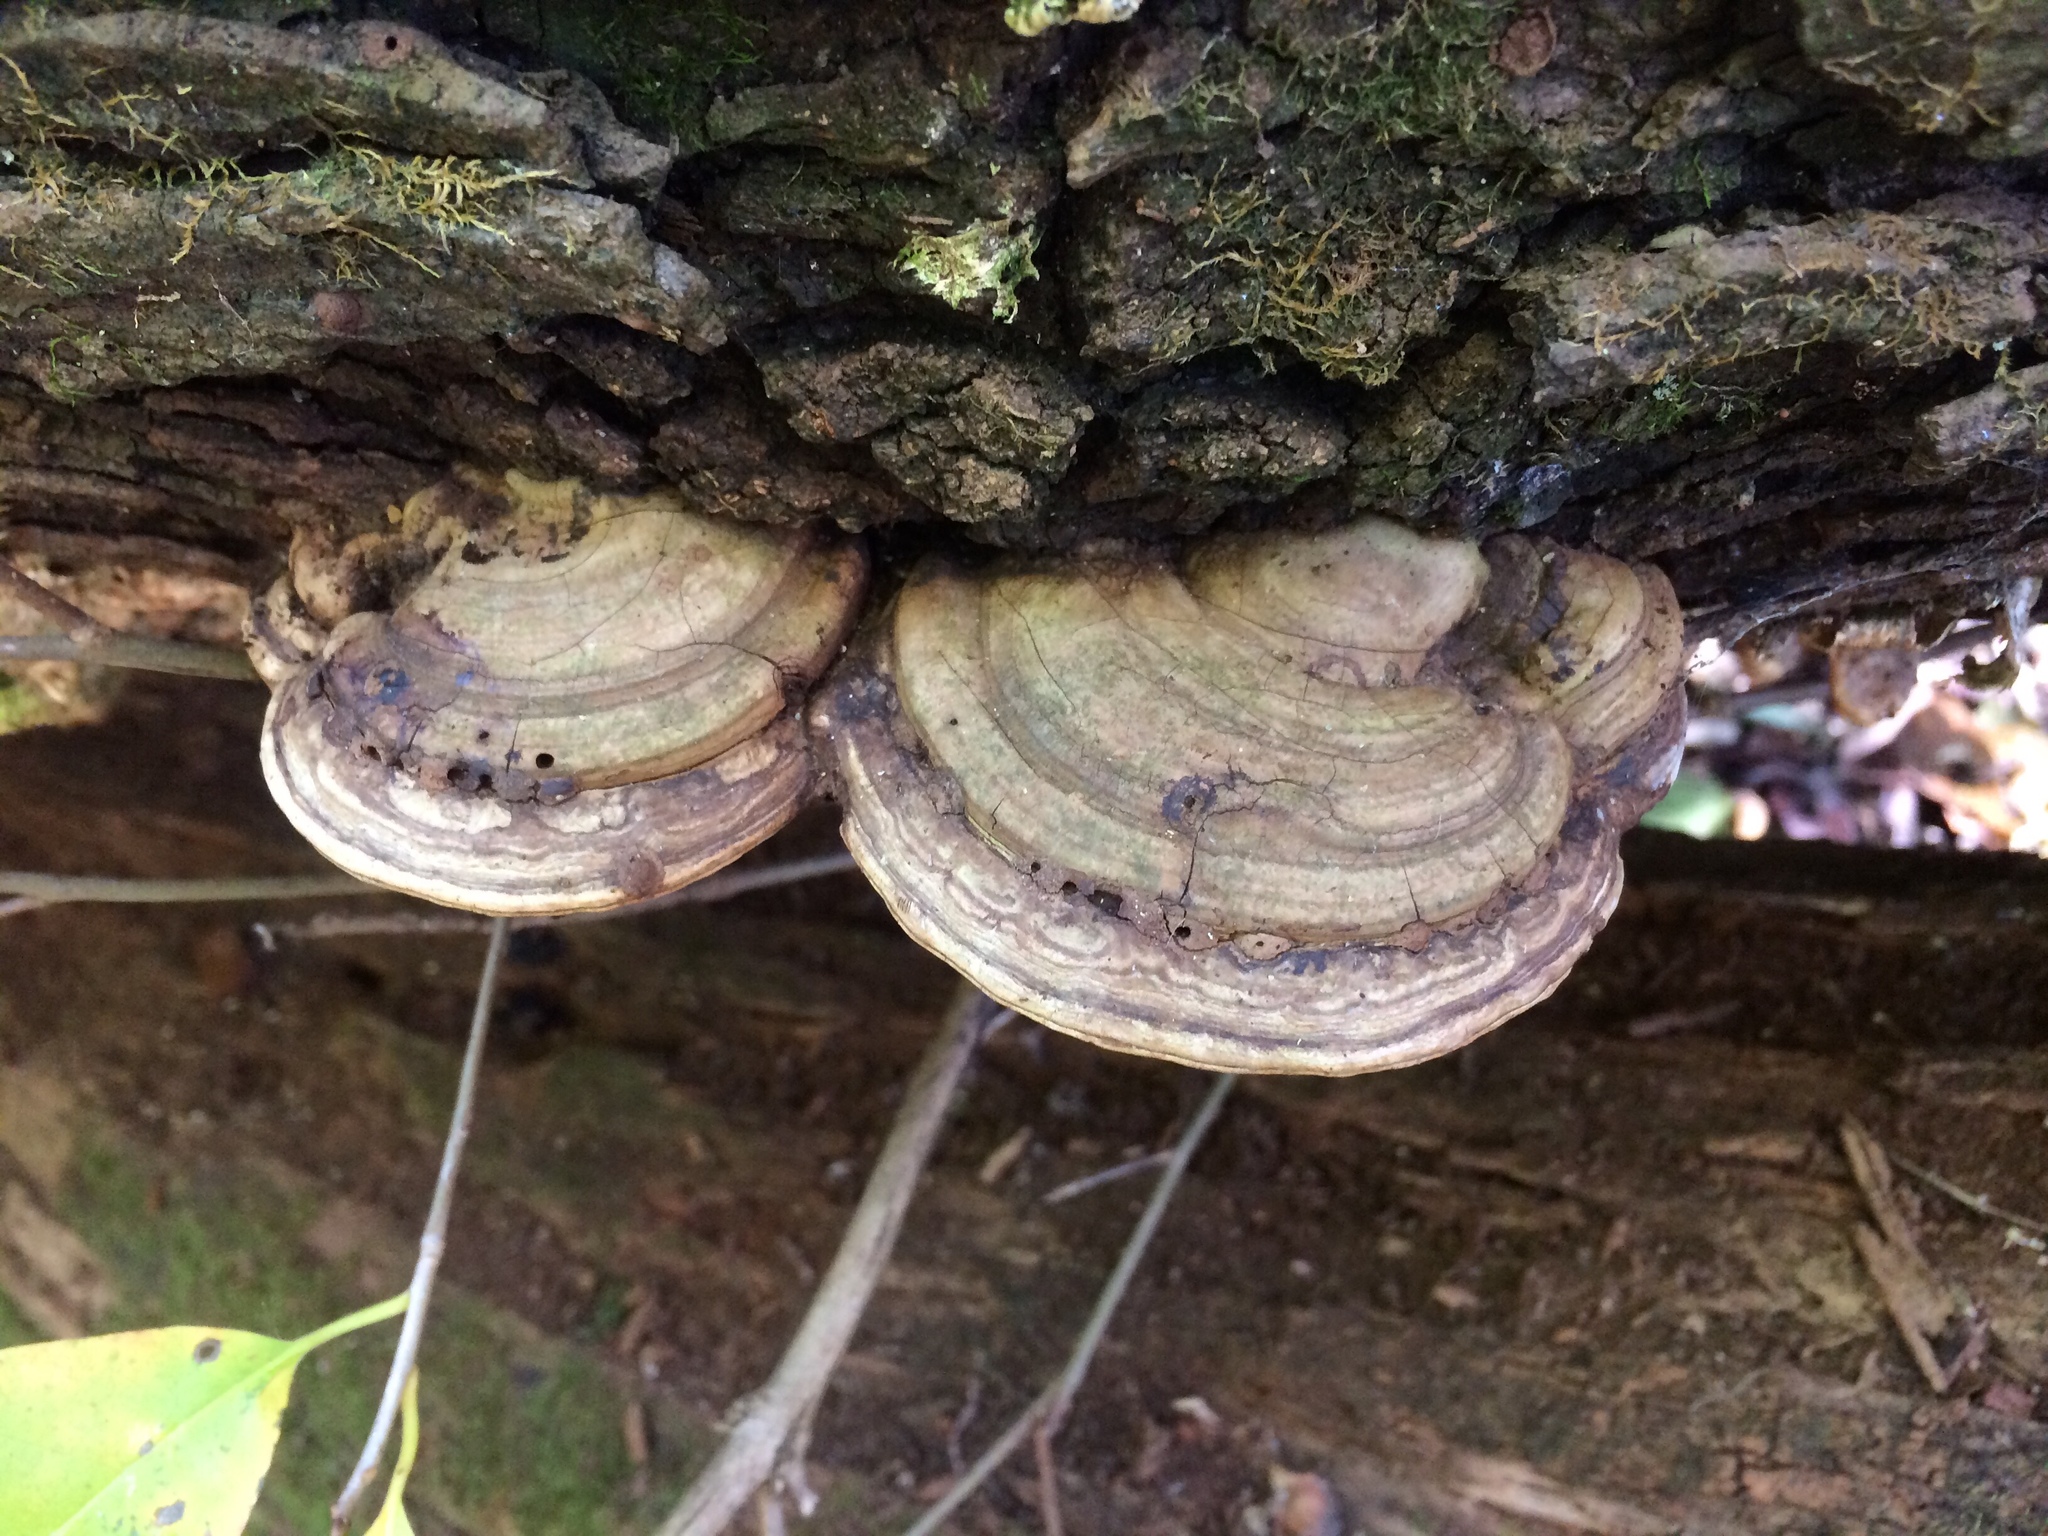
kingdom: Fungi
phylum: Basidiomycota
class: Agaricomycetes
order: Polyporales
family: Polyporaceae
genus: Ganoderma
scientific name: Ganoderma applanatum
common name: Artist's bracket
